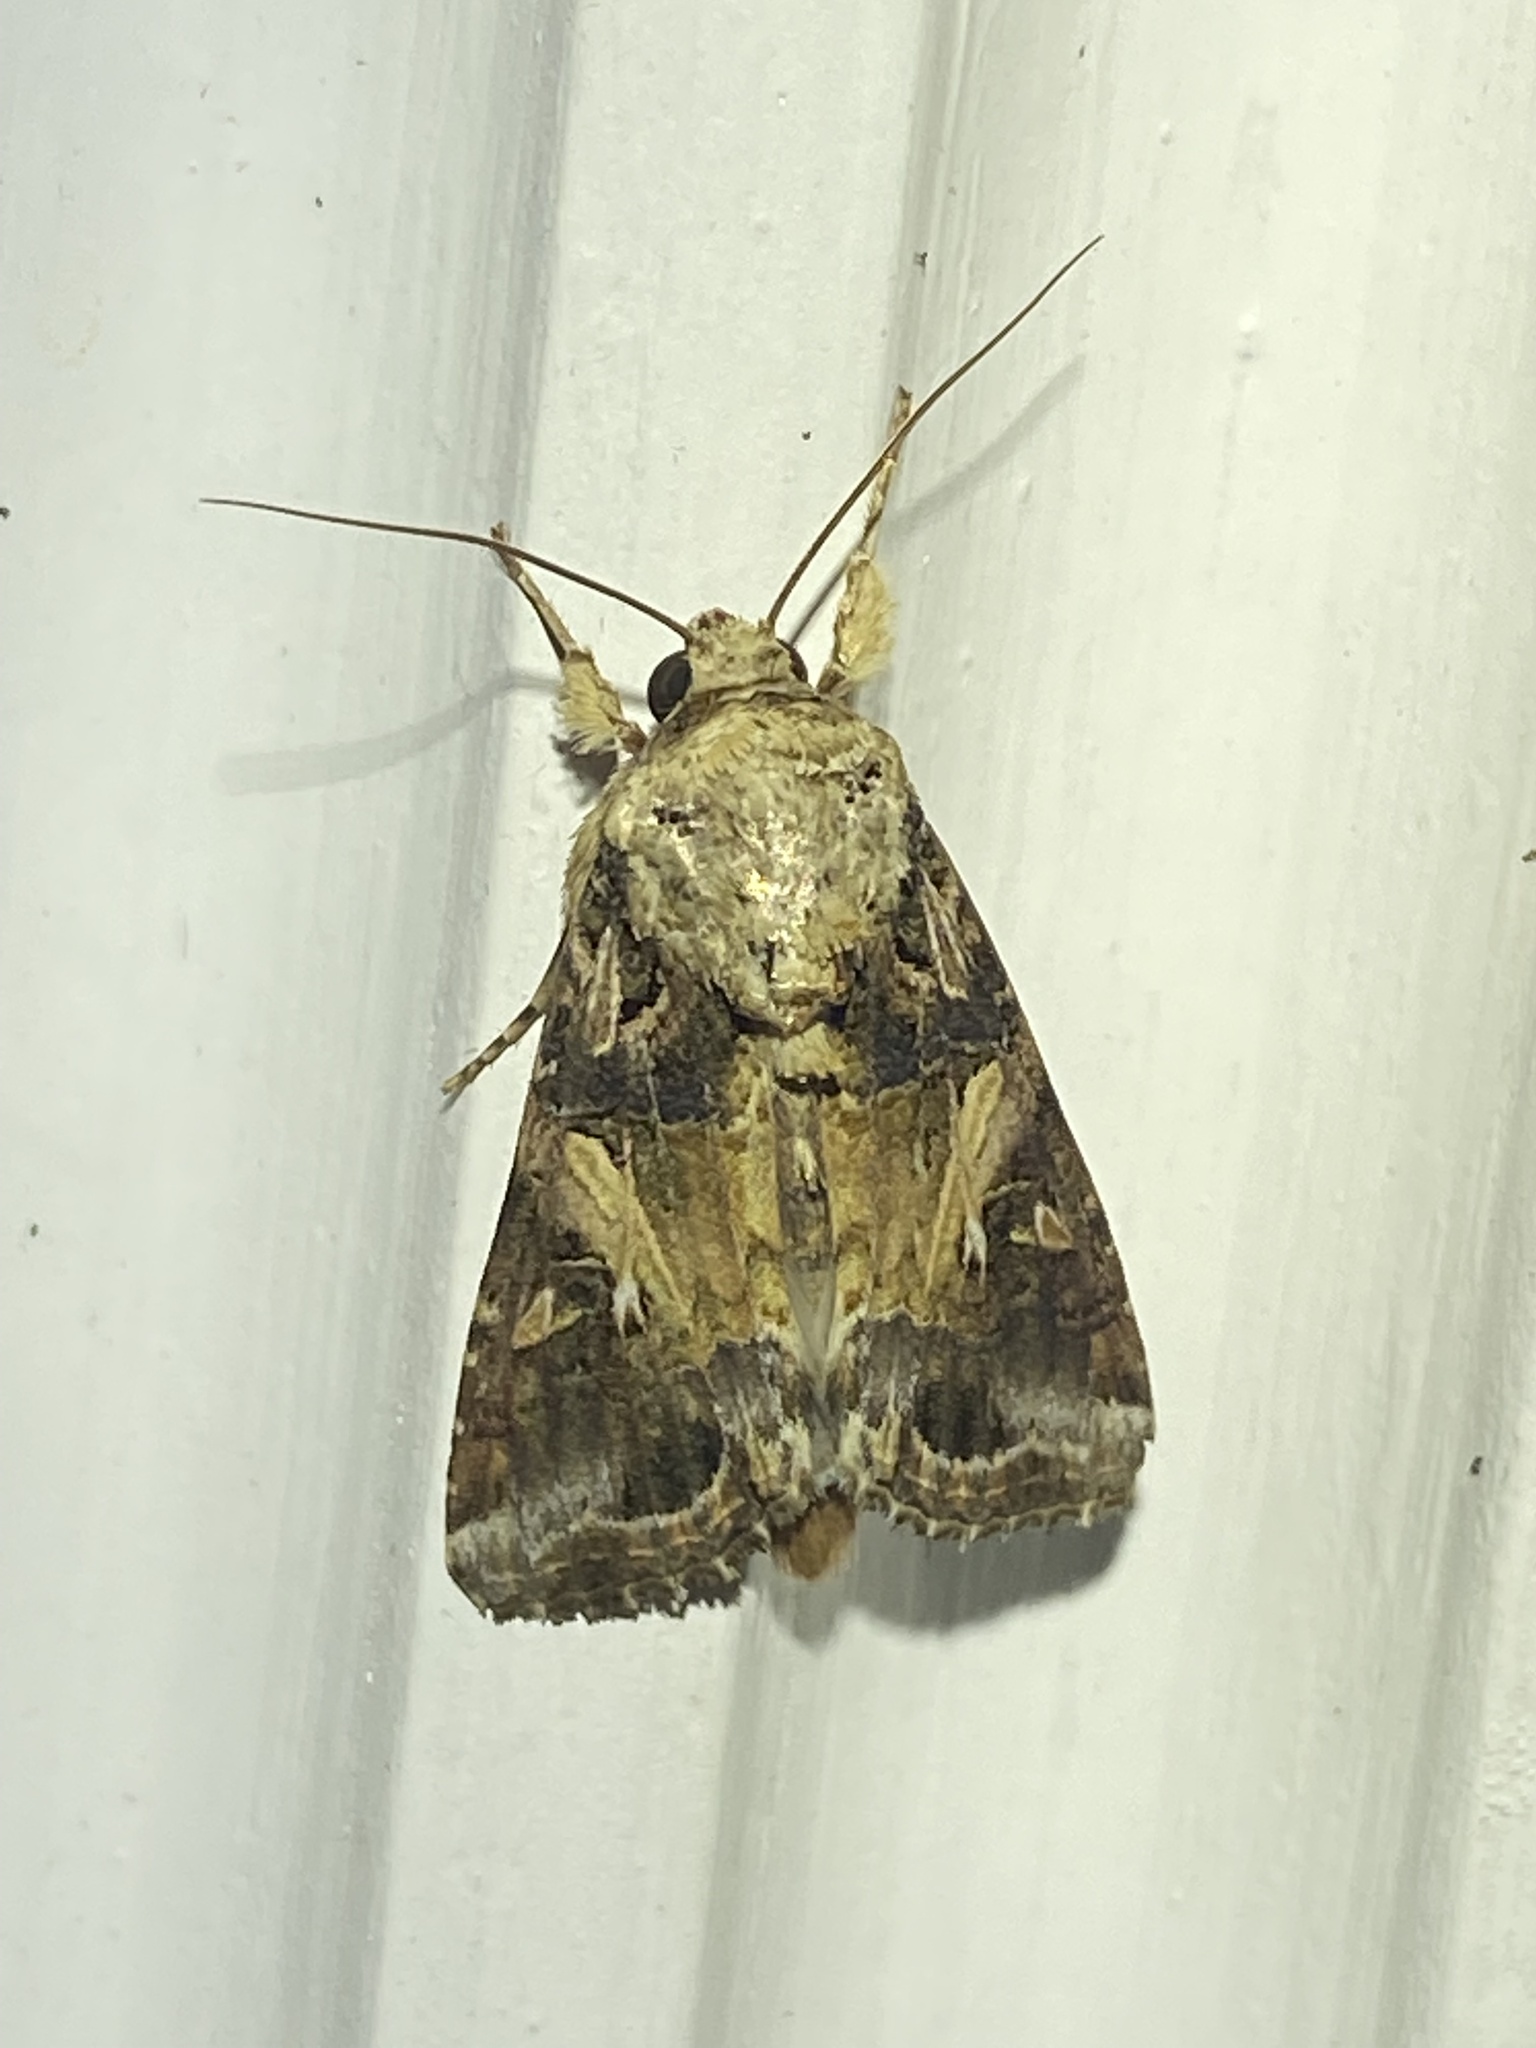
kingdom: Animalia
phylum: Arthropoda
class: Insecta
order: Lepidoptera
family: Noctuidae
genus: Spodoptera
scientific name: Spodoptera ornithogalli
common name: Yellow-striped armyworm
